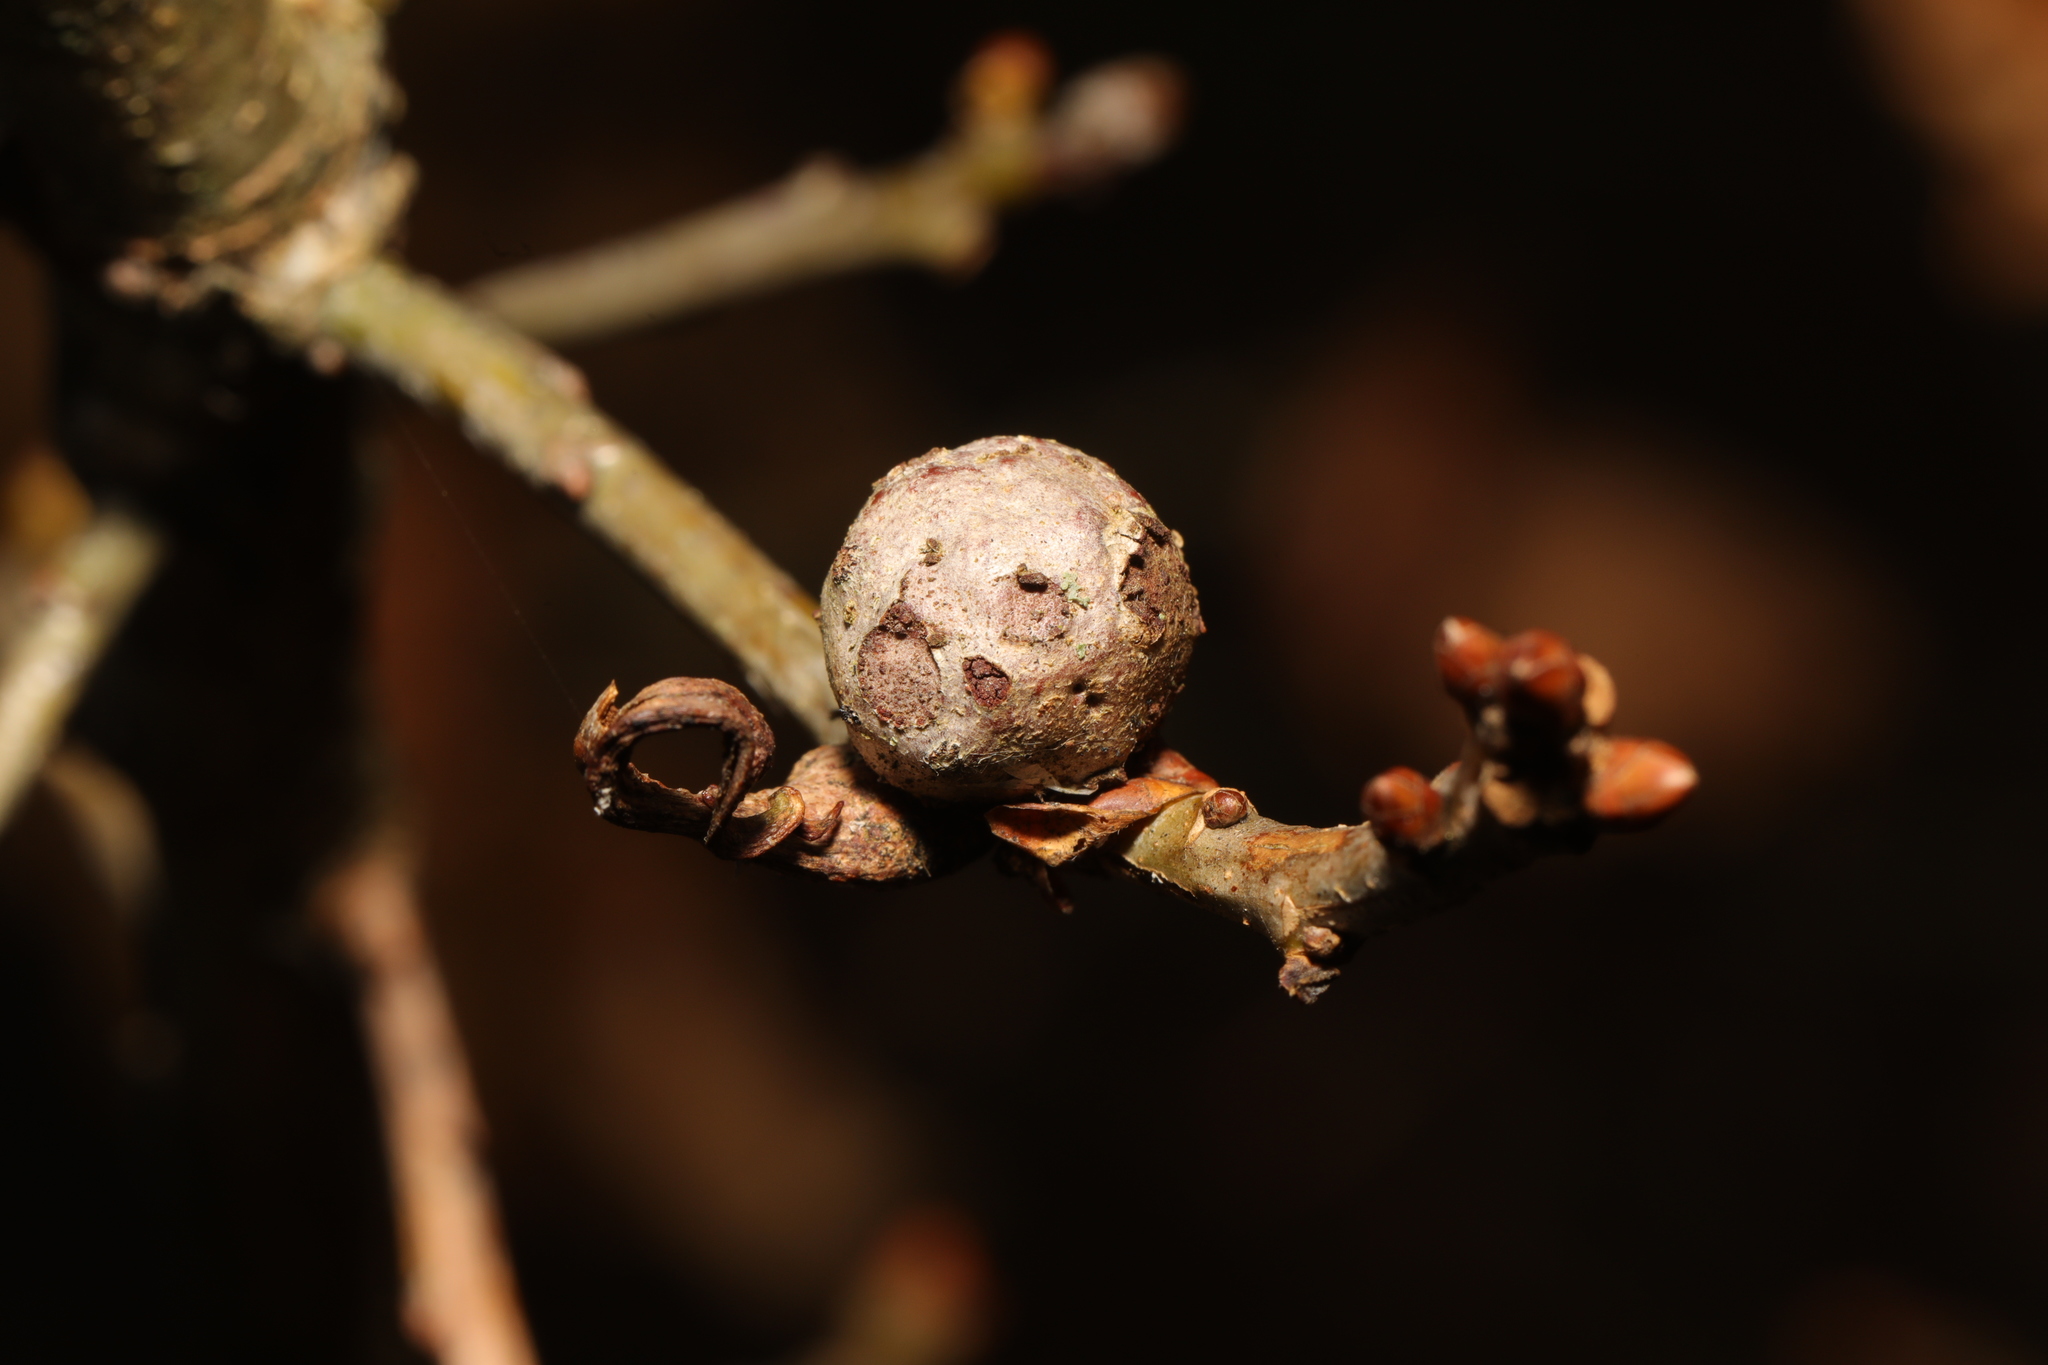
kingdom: Animalia
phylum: Arthropoda
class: Insecta
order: Hymenoptera
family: Cynipidae
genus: Andricus
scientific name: Andricus lignicolus
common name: Cola-nut gall
